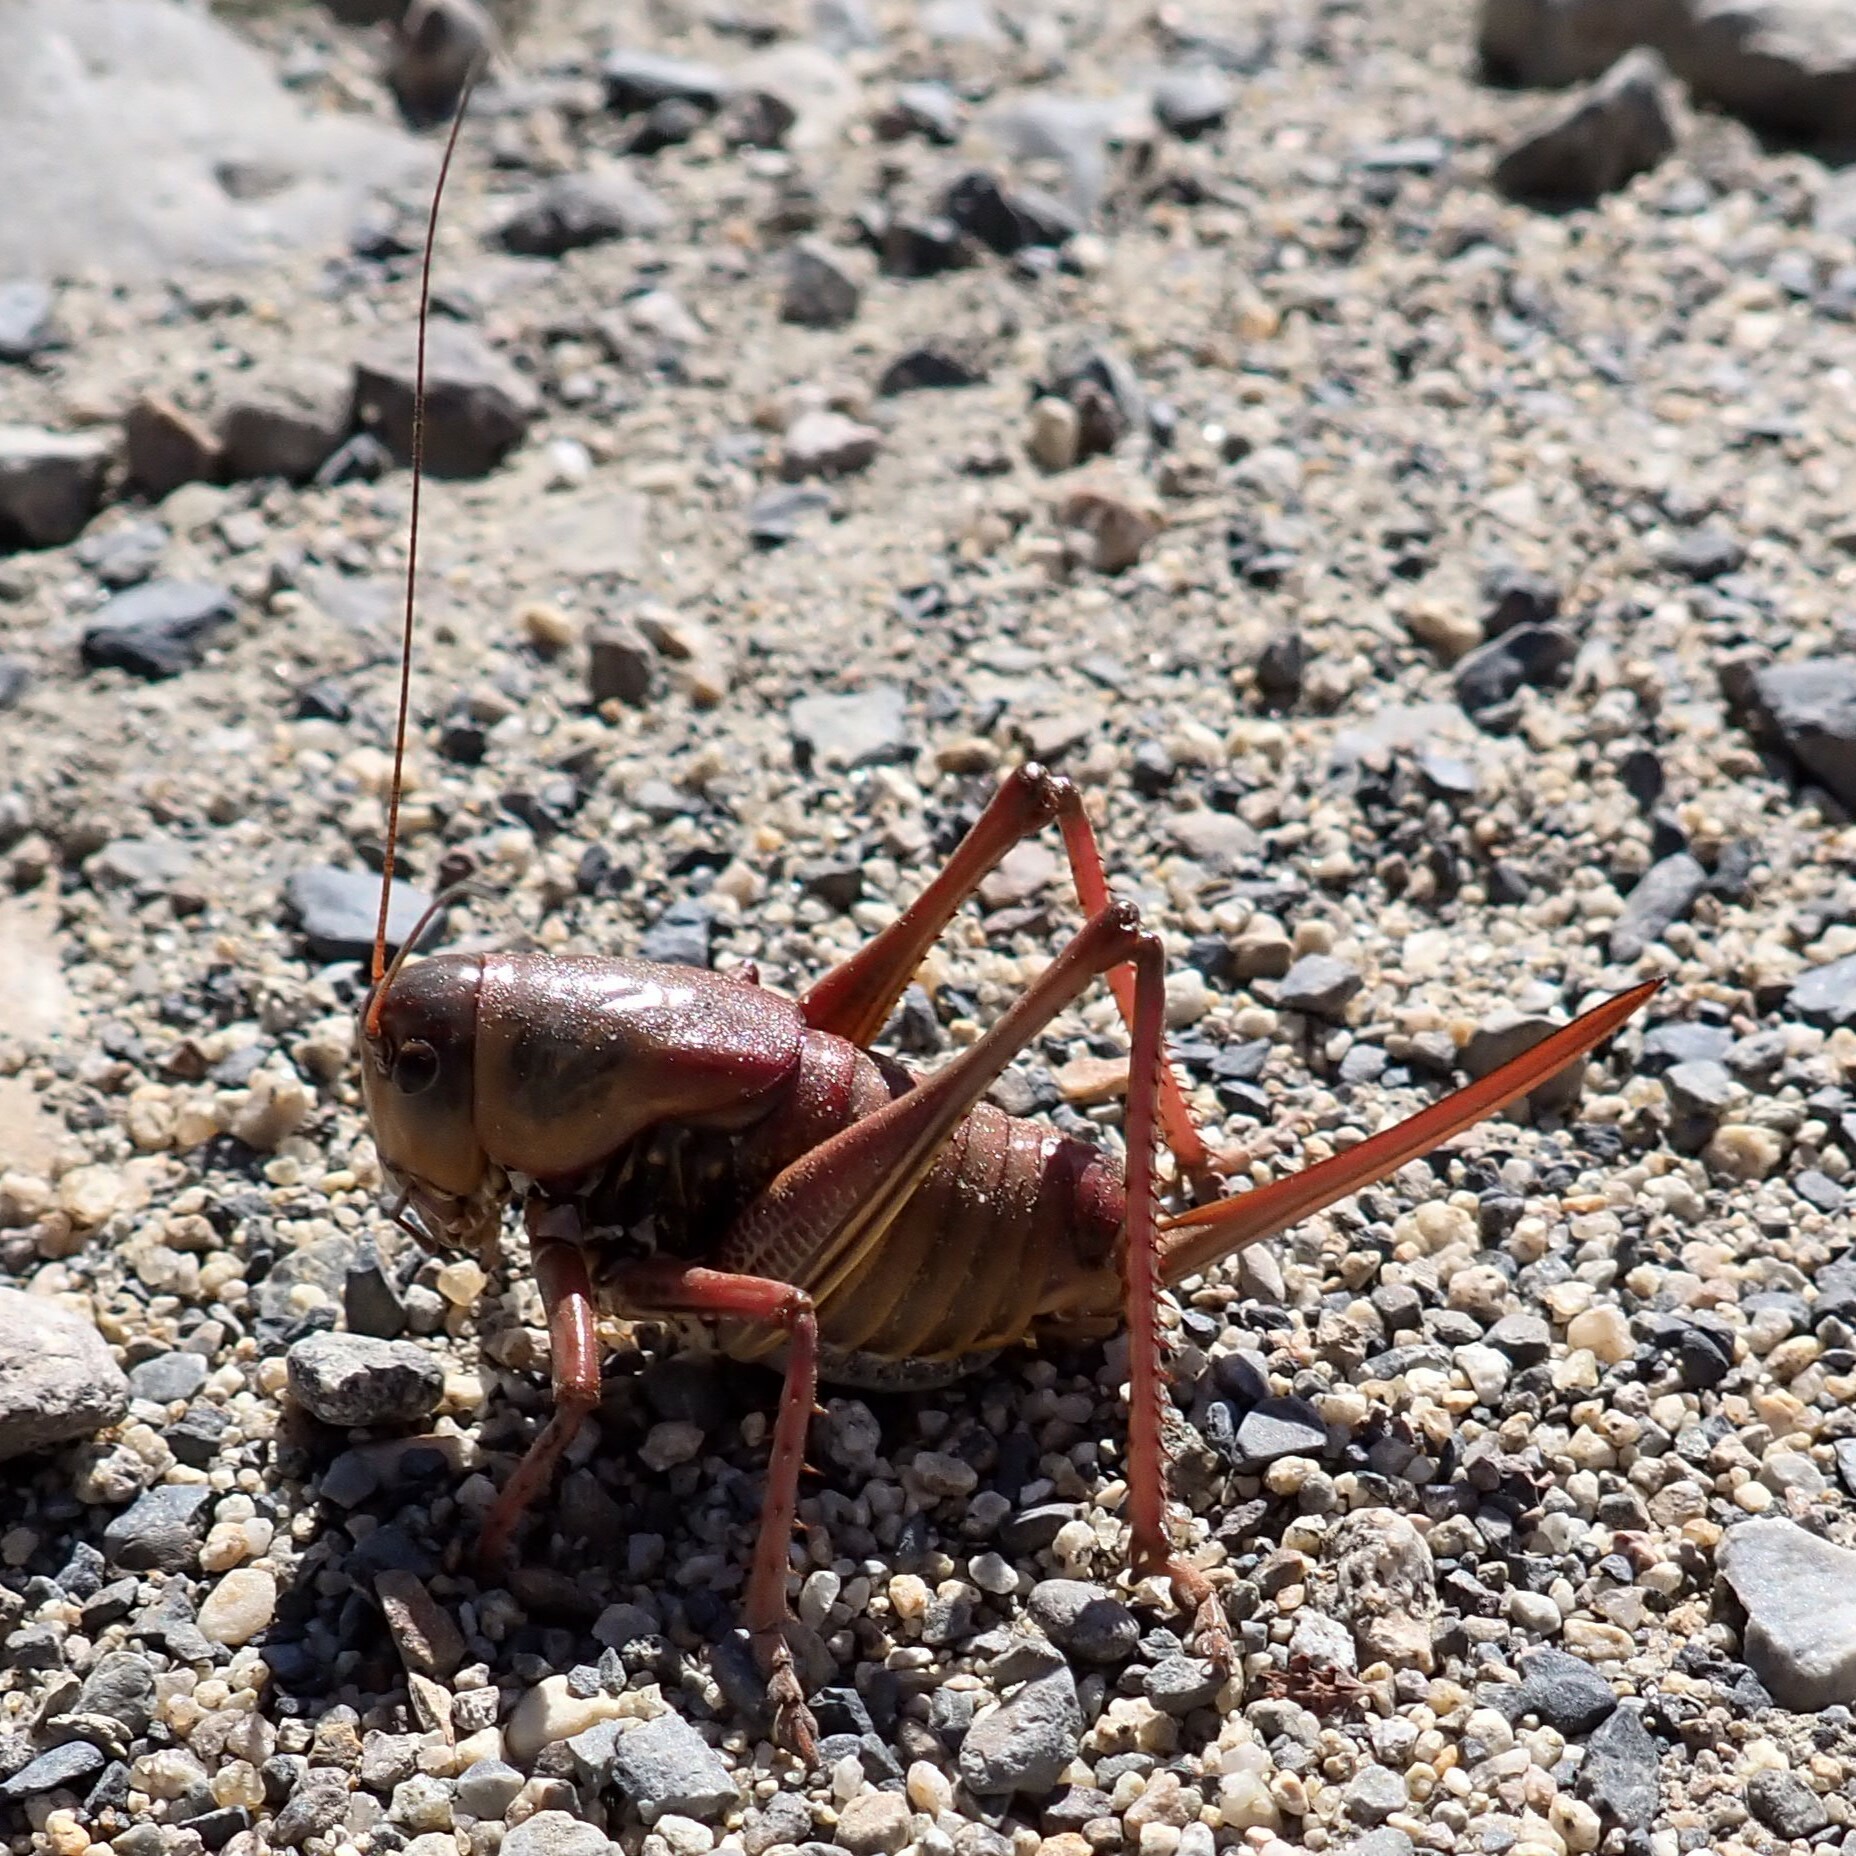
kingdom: Animalia
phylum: Arthropoda
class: Insecta
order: Orthoptera
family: Tettigoniidae
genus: Anabrus
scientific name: Anabrus simplex
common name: Mormon cricket
